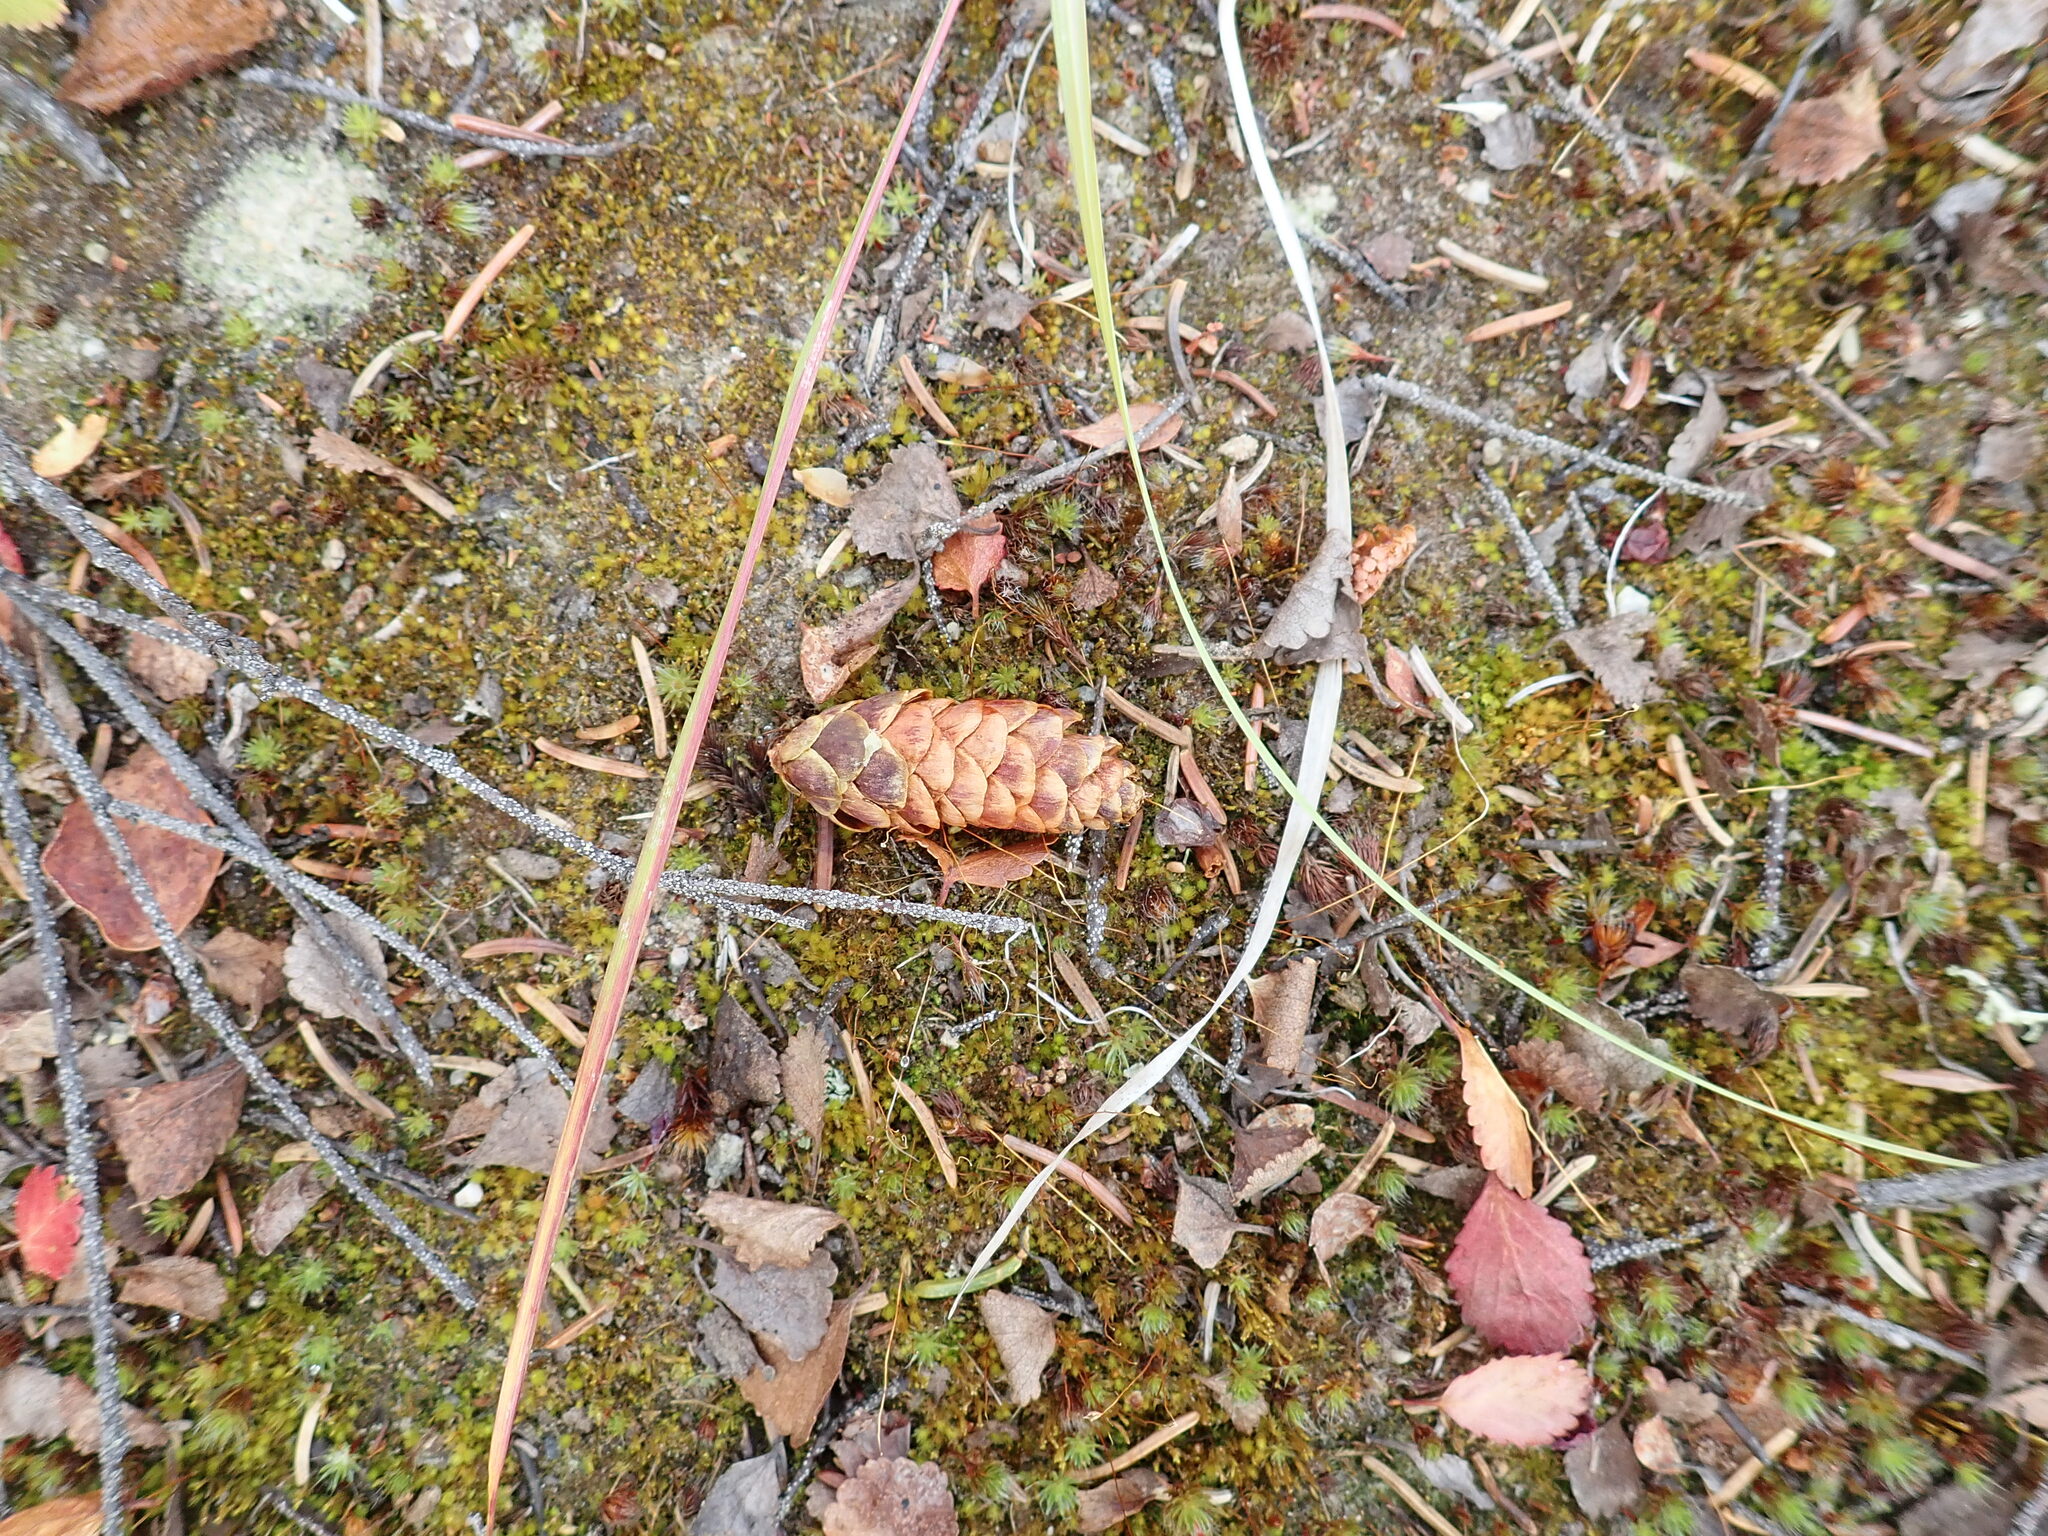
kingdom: Plantae
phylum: Tracheophyta
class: Pinopsida
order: Pinales
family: Pinaceae
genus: Picea
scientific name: Picea glauca
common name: White spruce
